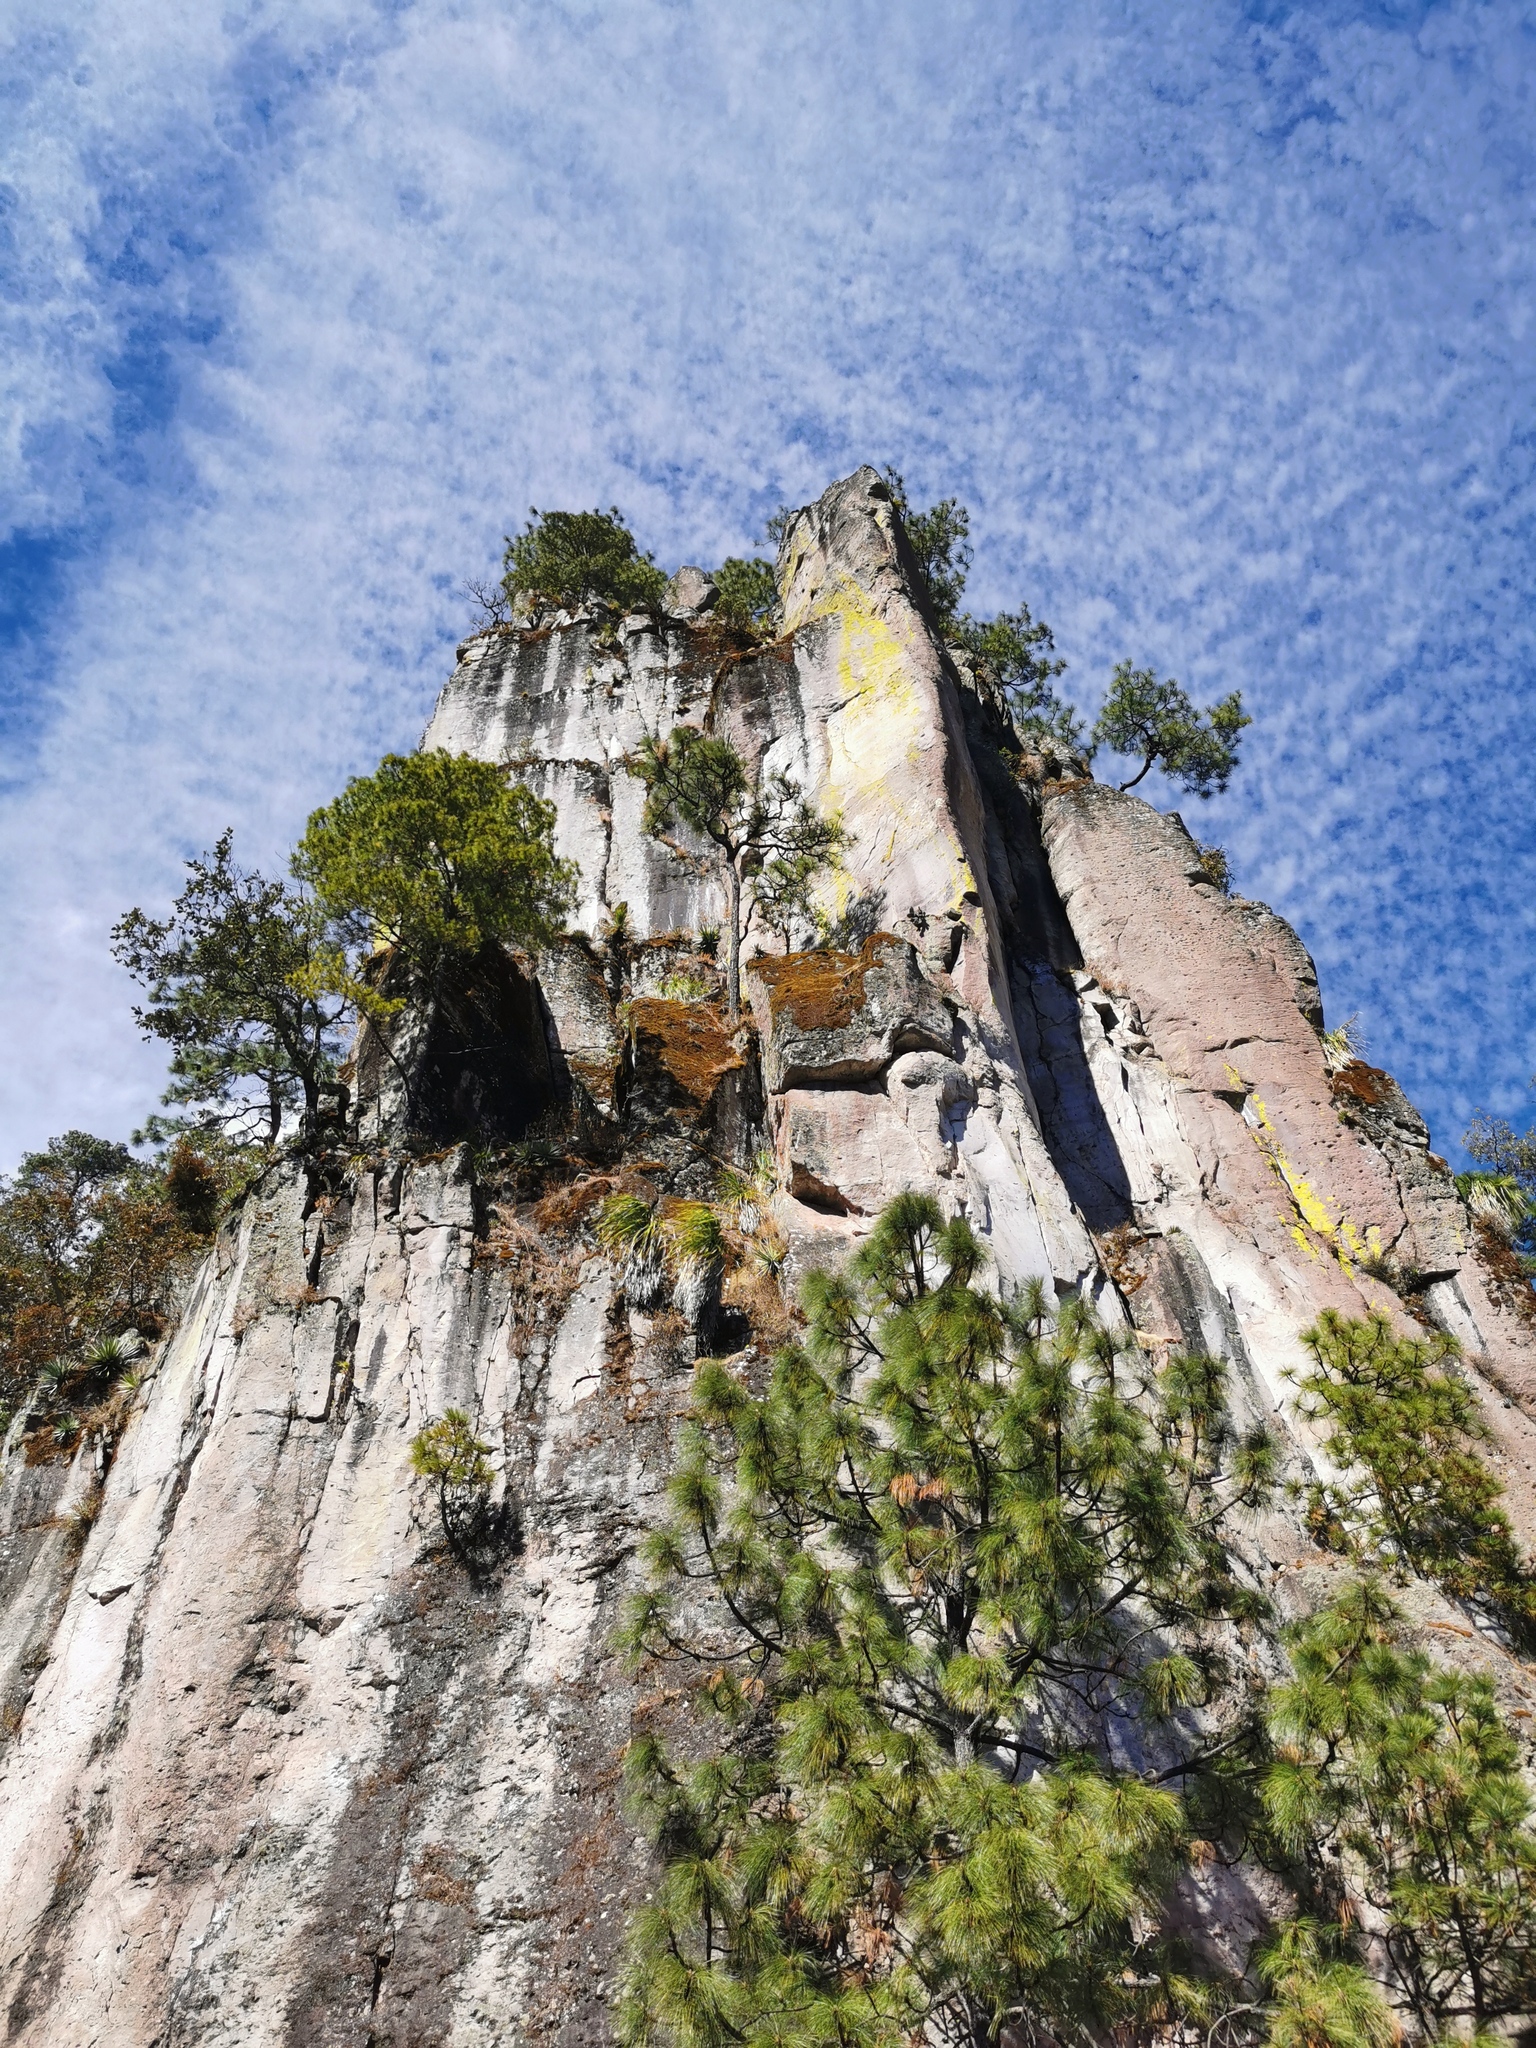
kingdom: Plantae
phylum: Tracheophyta
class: Pinopsida
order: Pinales
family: Pinaceae
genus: Pinus
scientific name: Pinus douglasiana
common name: Douglas pine
